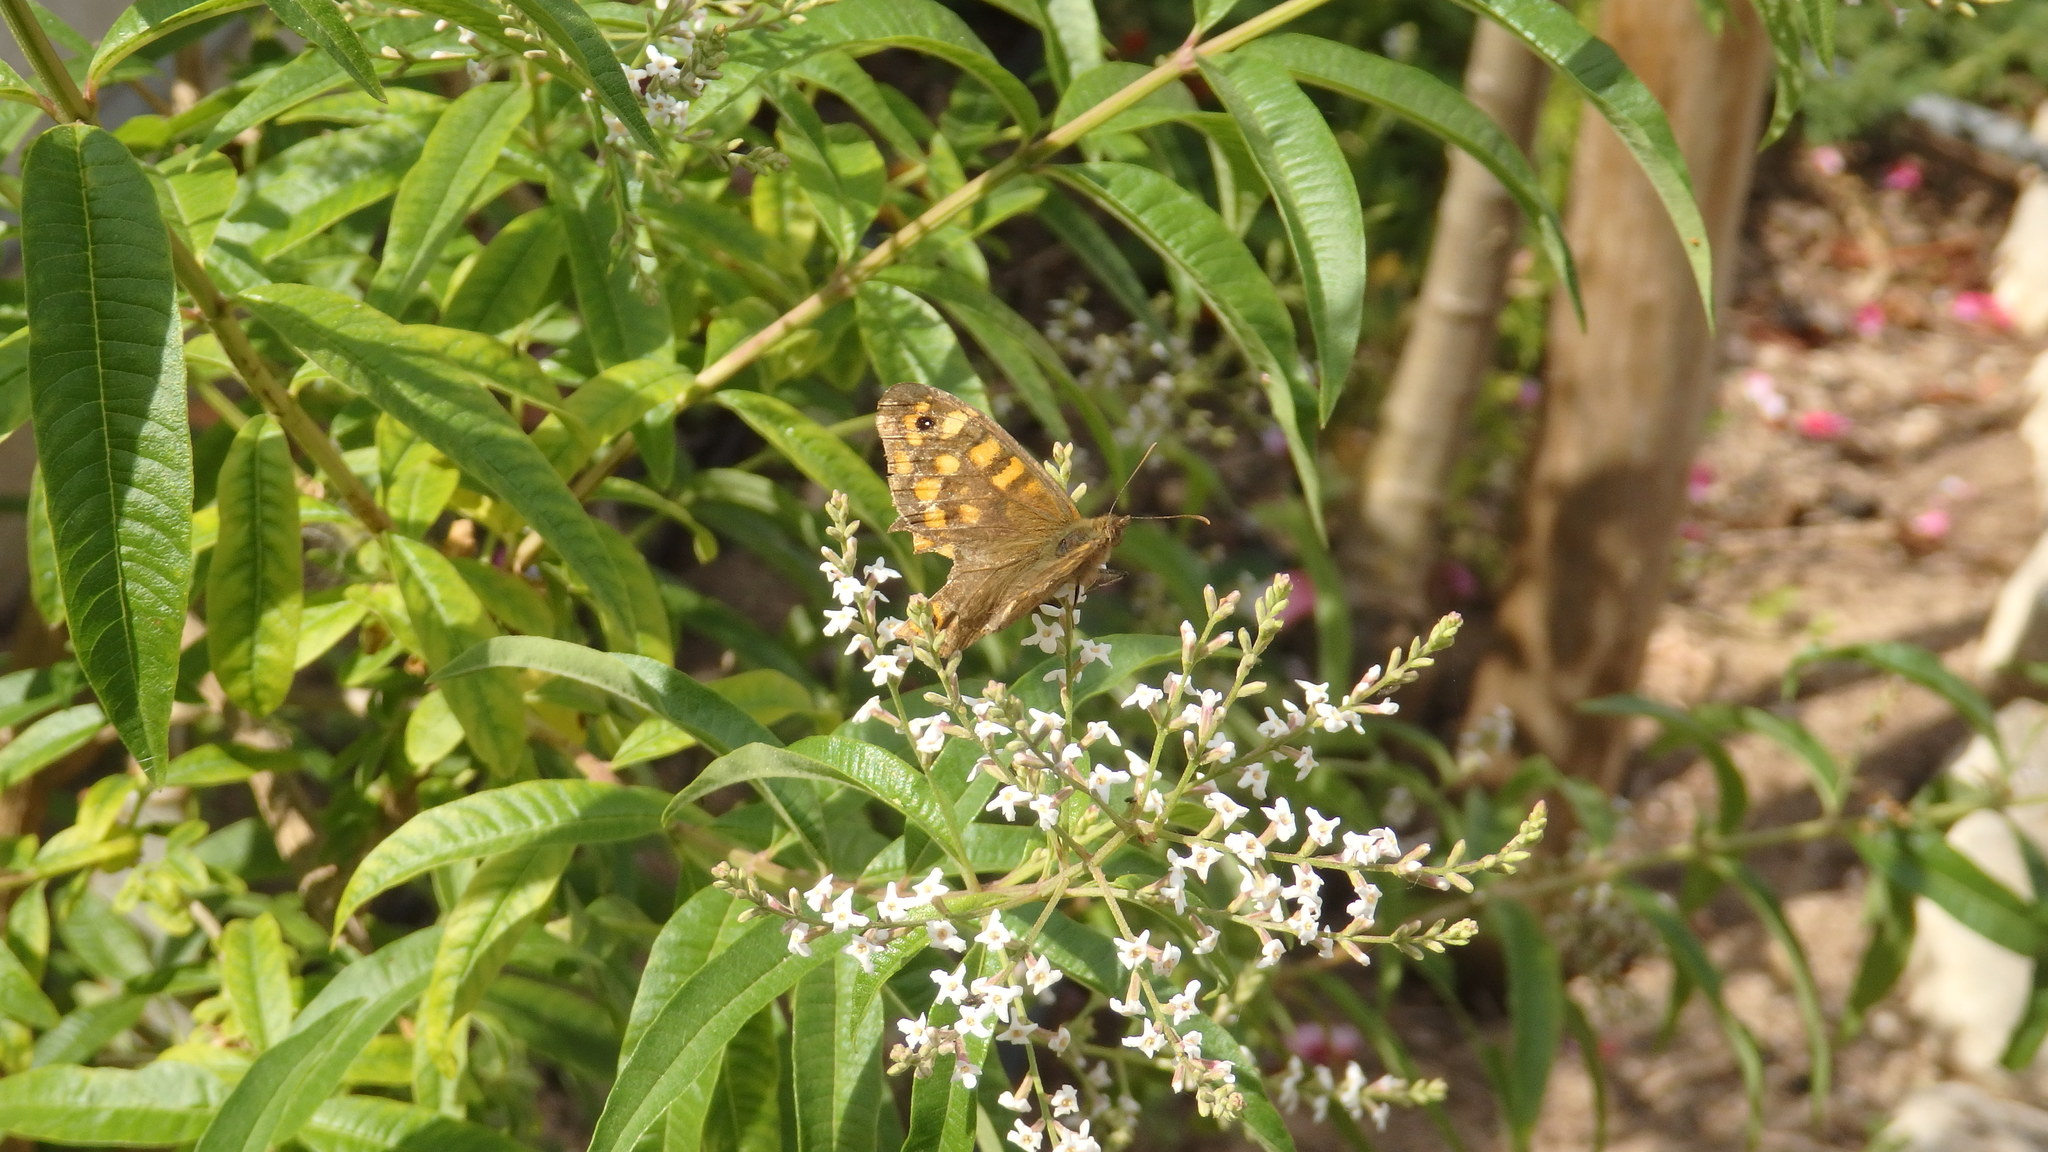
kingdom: Animalia
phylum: Arthropoda
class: Insecta
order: Lepidoptera
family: Nymphalidae
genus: Pararge
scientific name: Pararge aegeria
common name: Speckled wood
